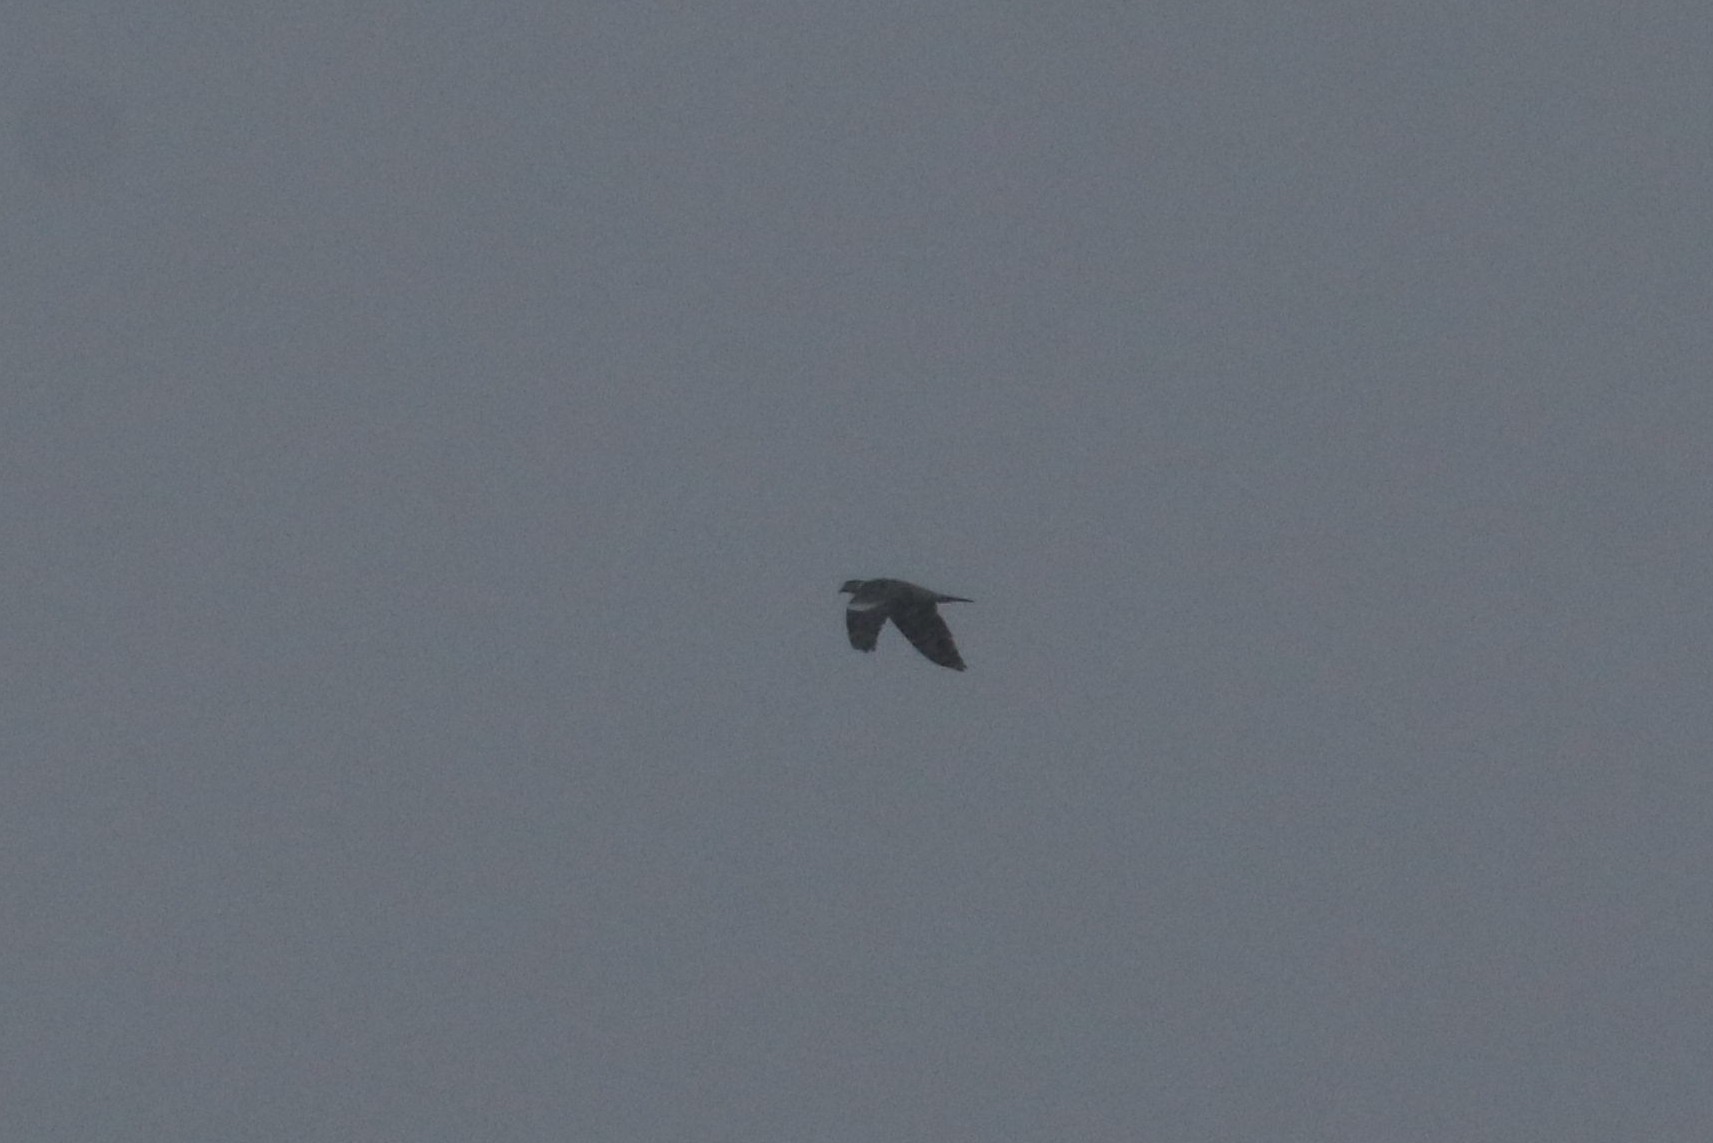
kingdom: Animalia
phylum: Chordata
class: Aves
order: Columbiformes
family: Columbidae
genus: Columba
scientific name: Columba palumbus
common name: Common wood pigeon
